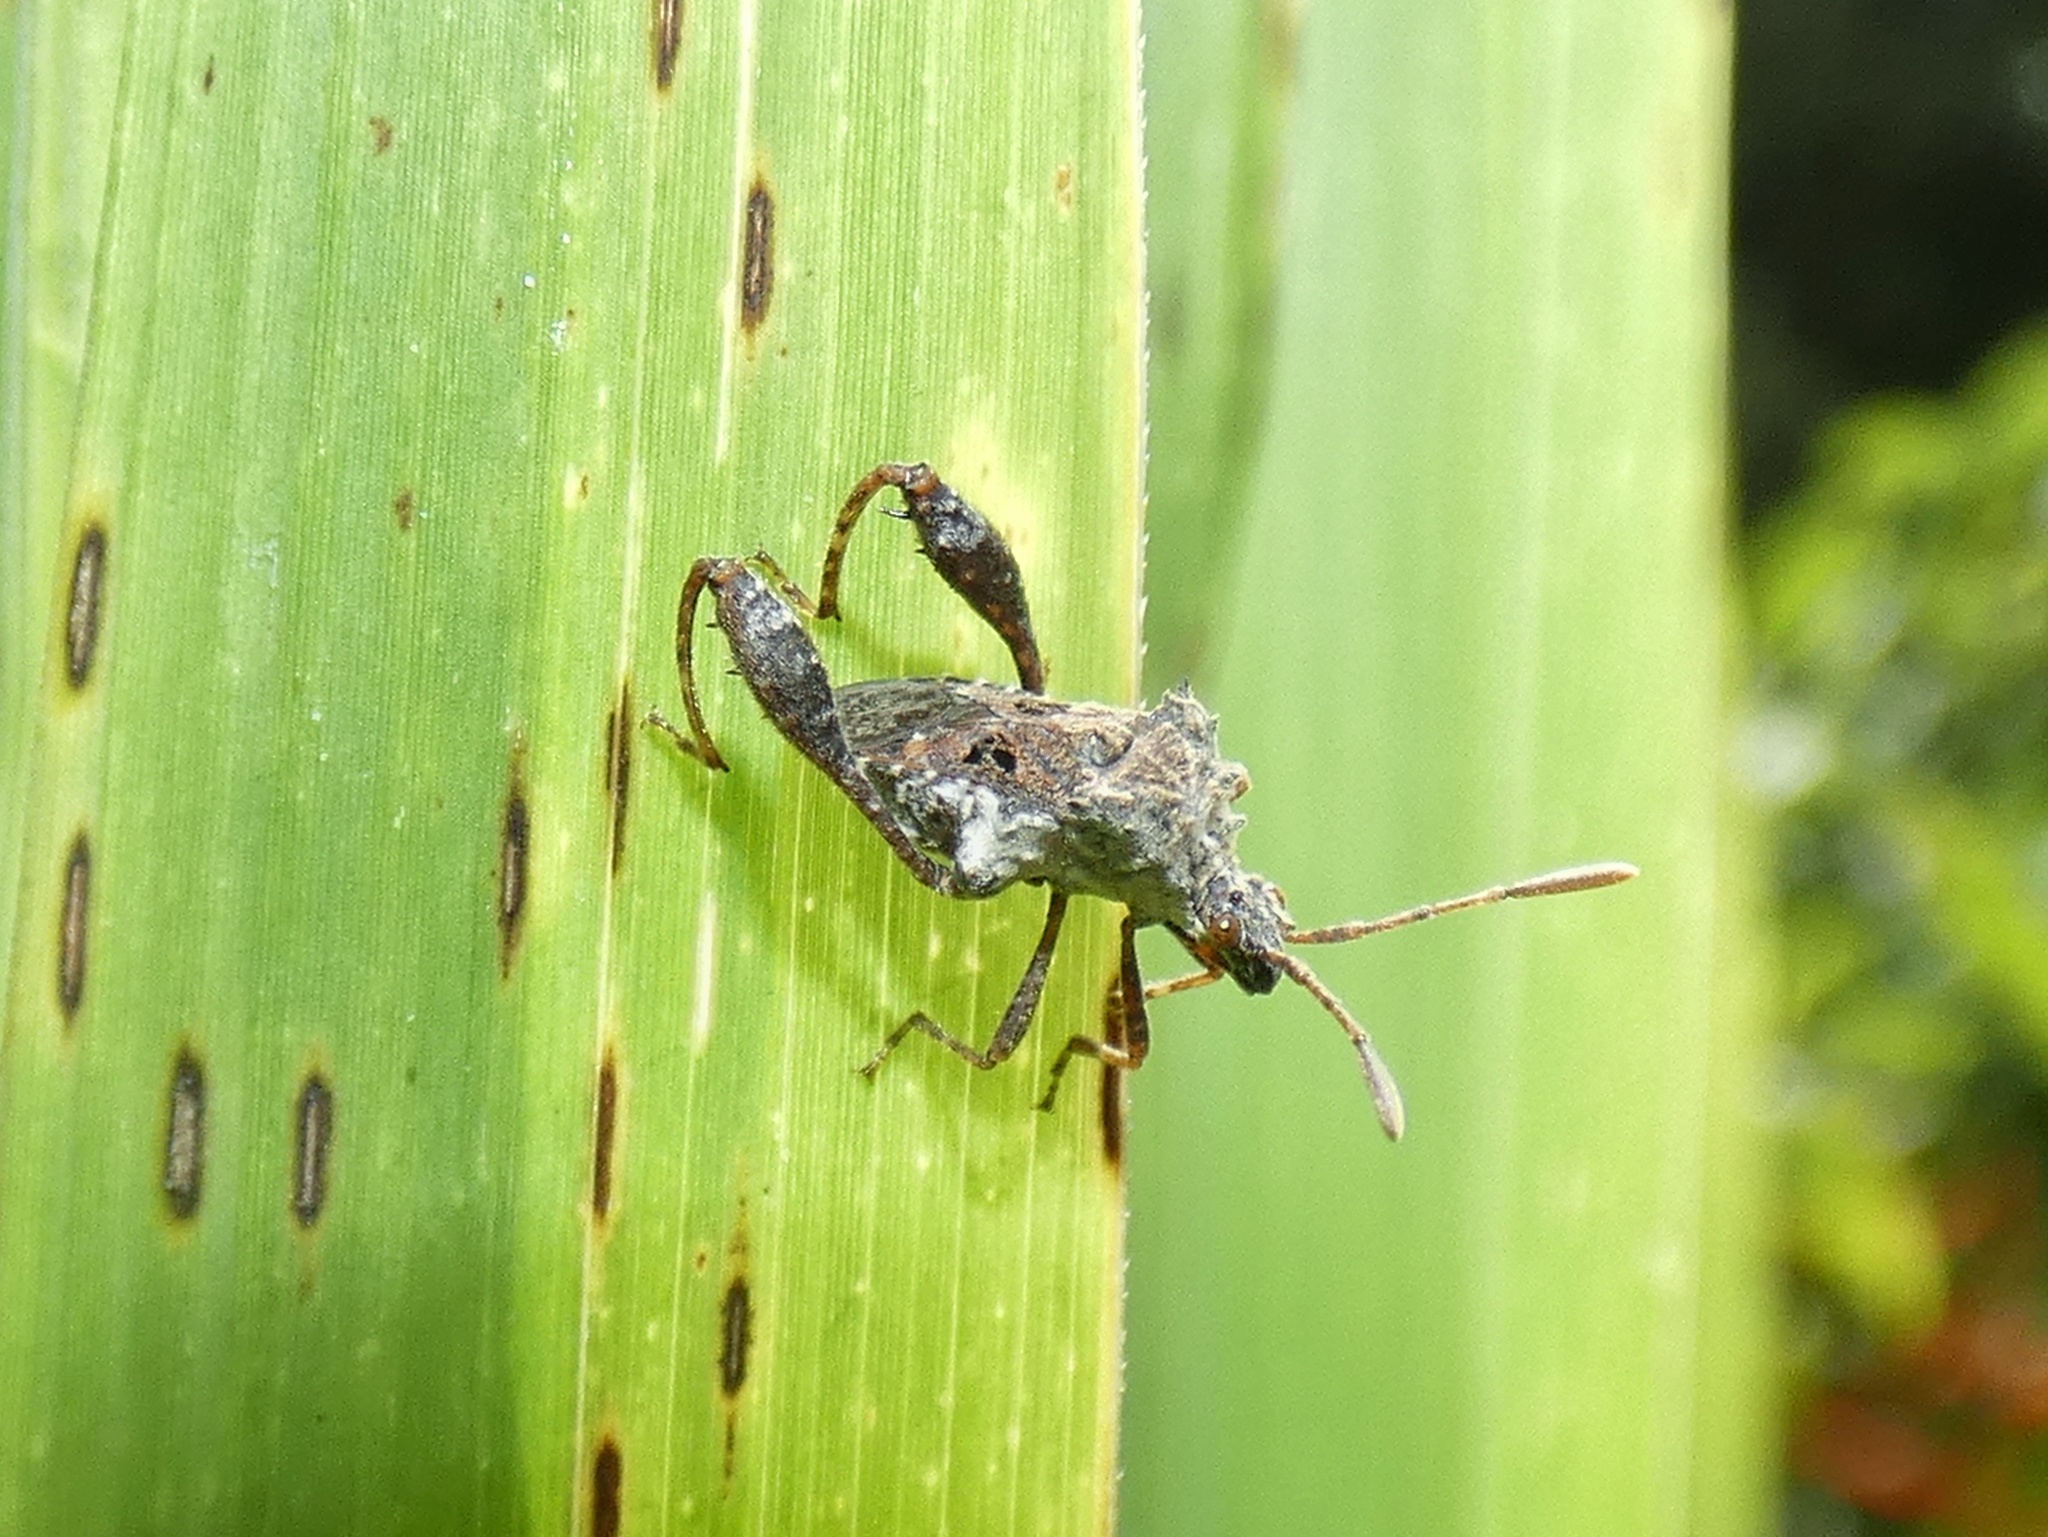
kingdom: Animalia
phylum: Arthropoda
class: Insecta
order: Hemiptera
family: Coreidae
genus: Merocoris
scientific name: Merocoris distinctus
